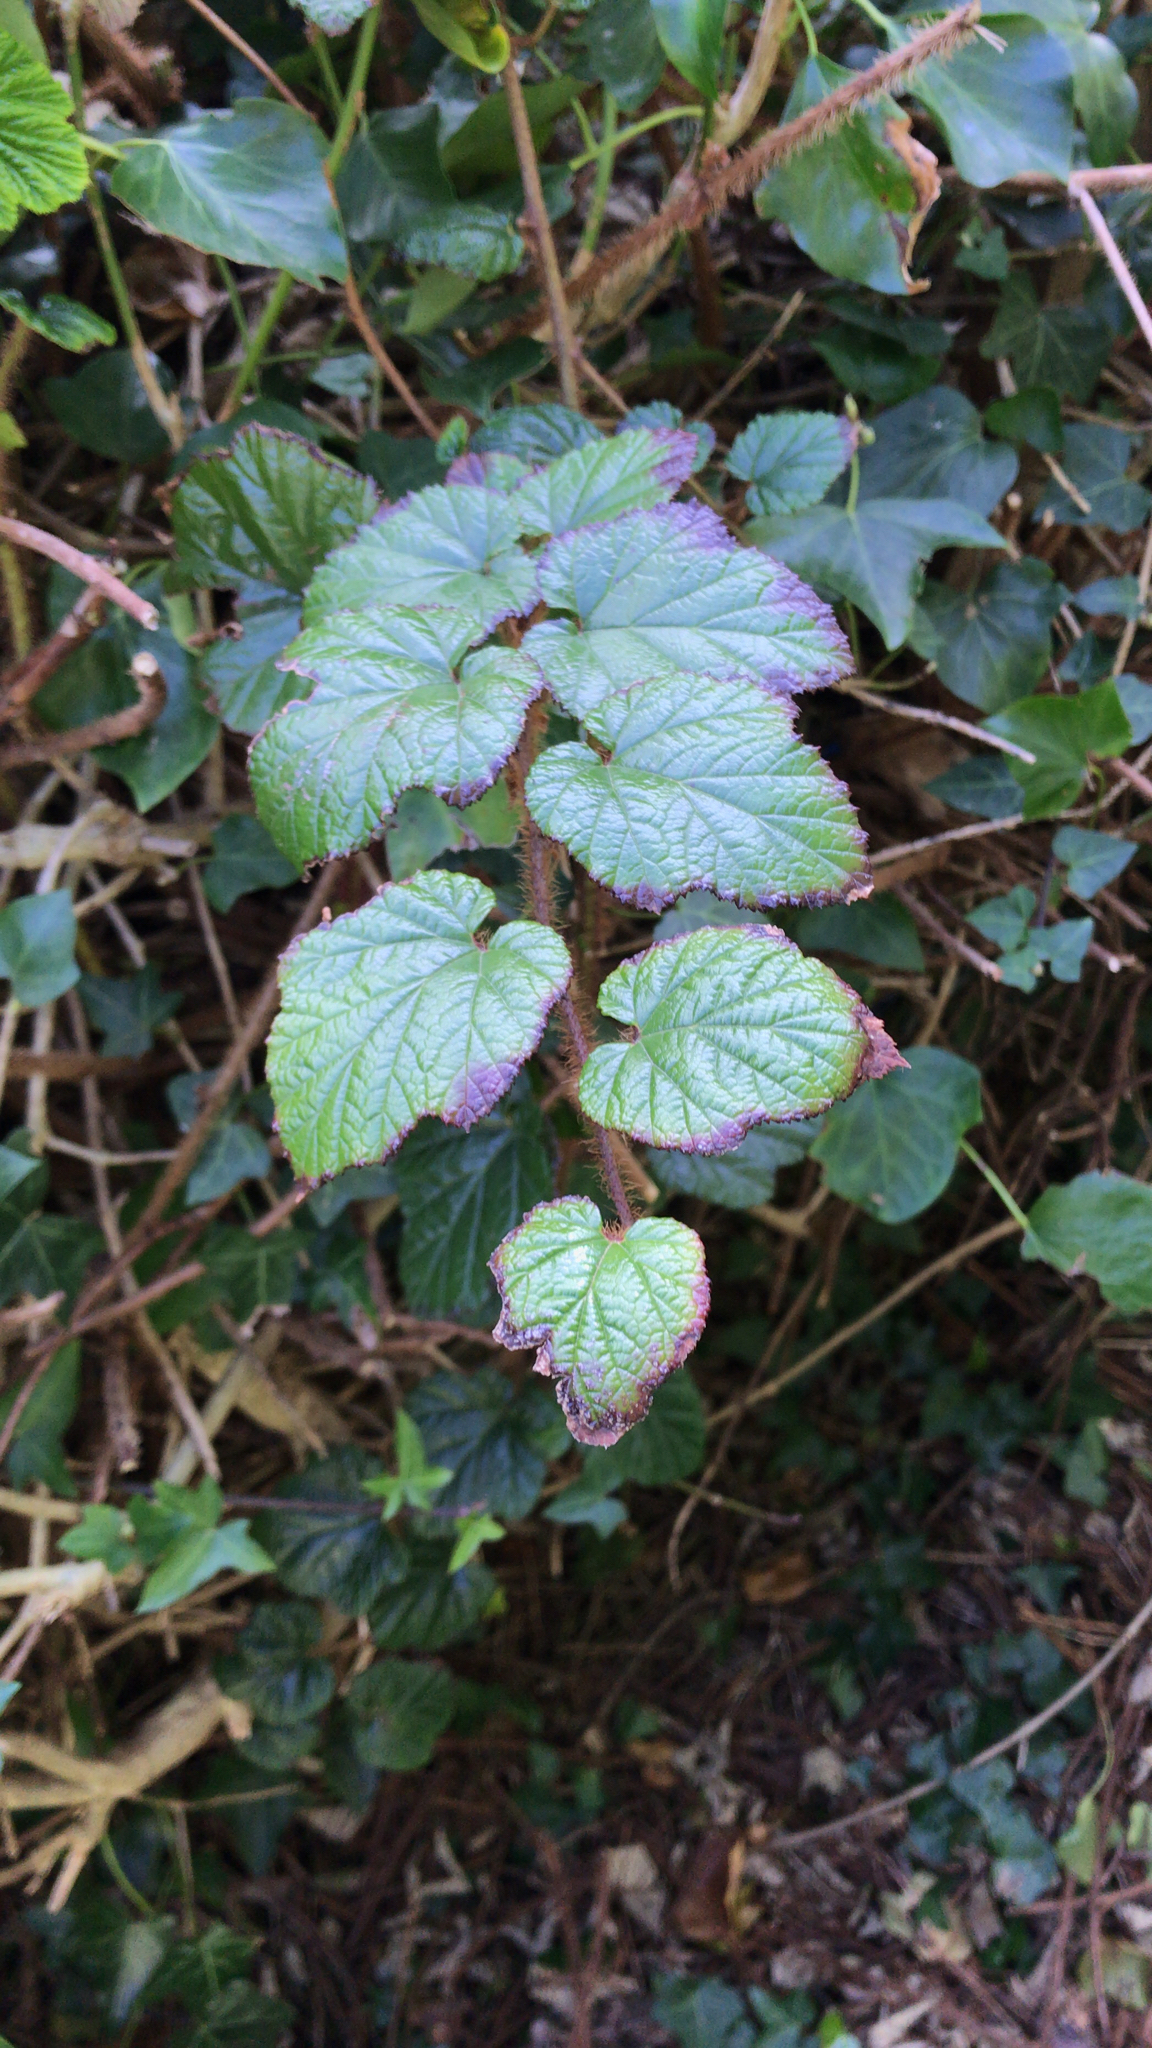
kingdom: Plantae
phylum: Tracheophyta
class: Magnoliopsida
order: Rosales
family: Rosaceae
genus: Rubus
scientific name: Rubus tricolor
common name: Chinese bramble
